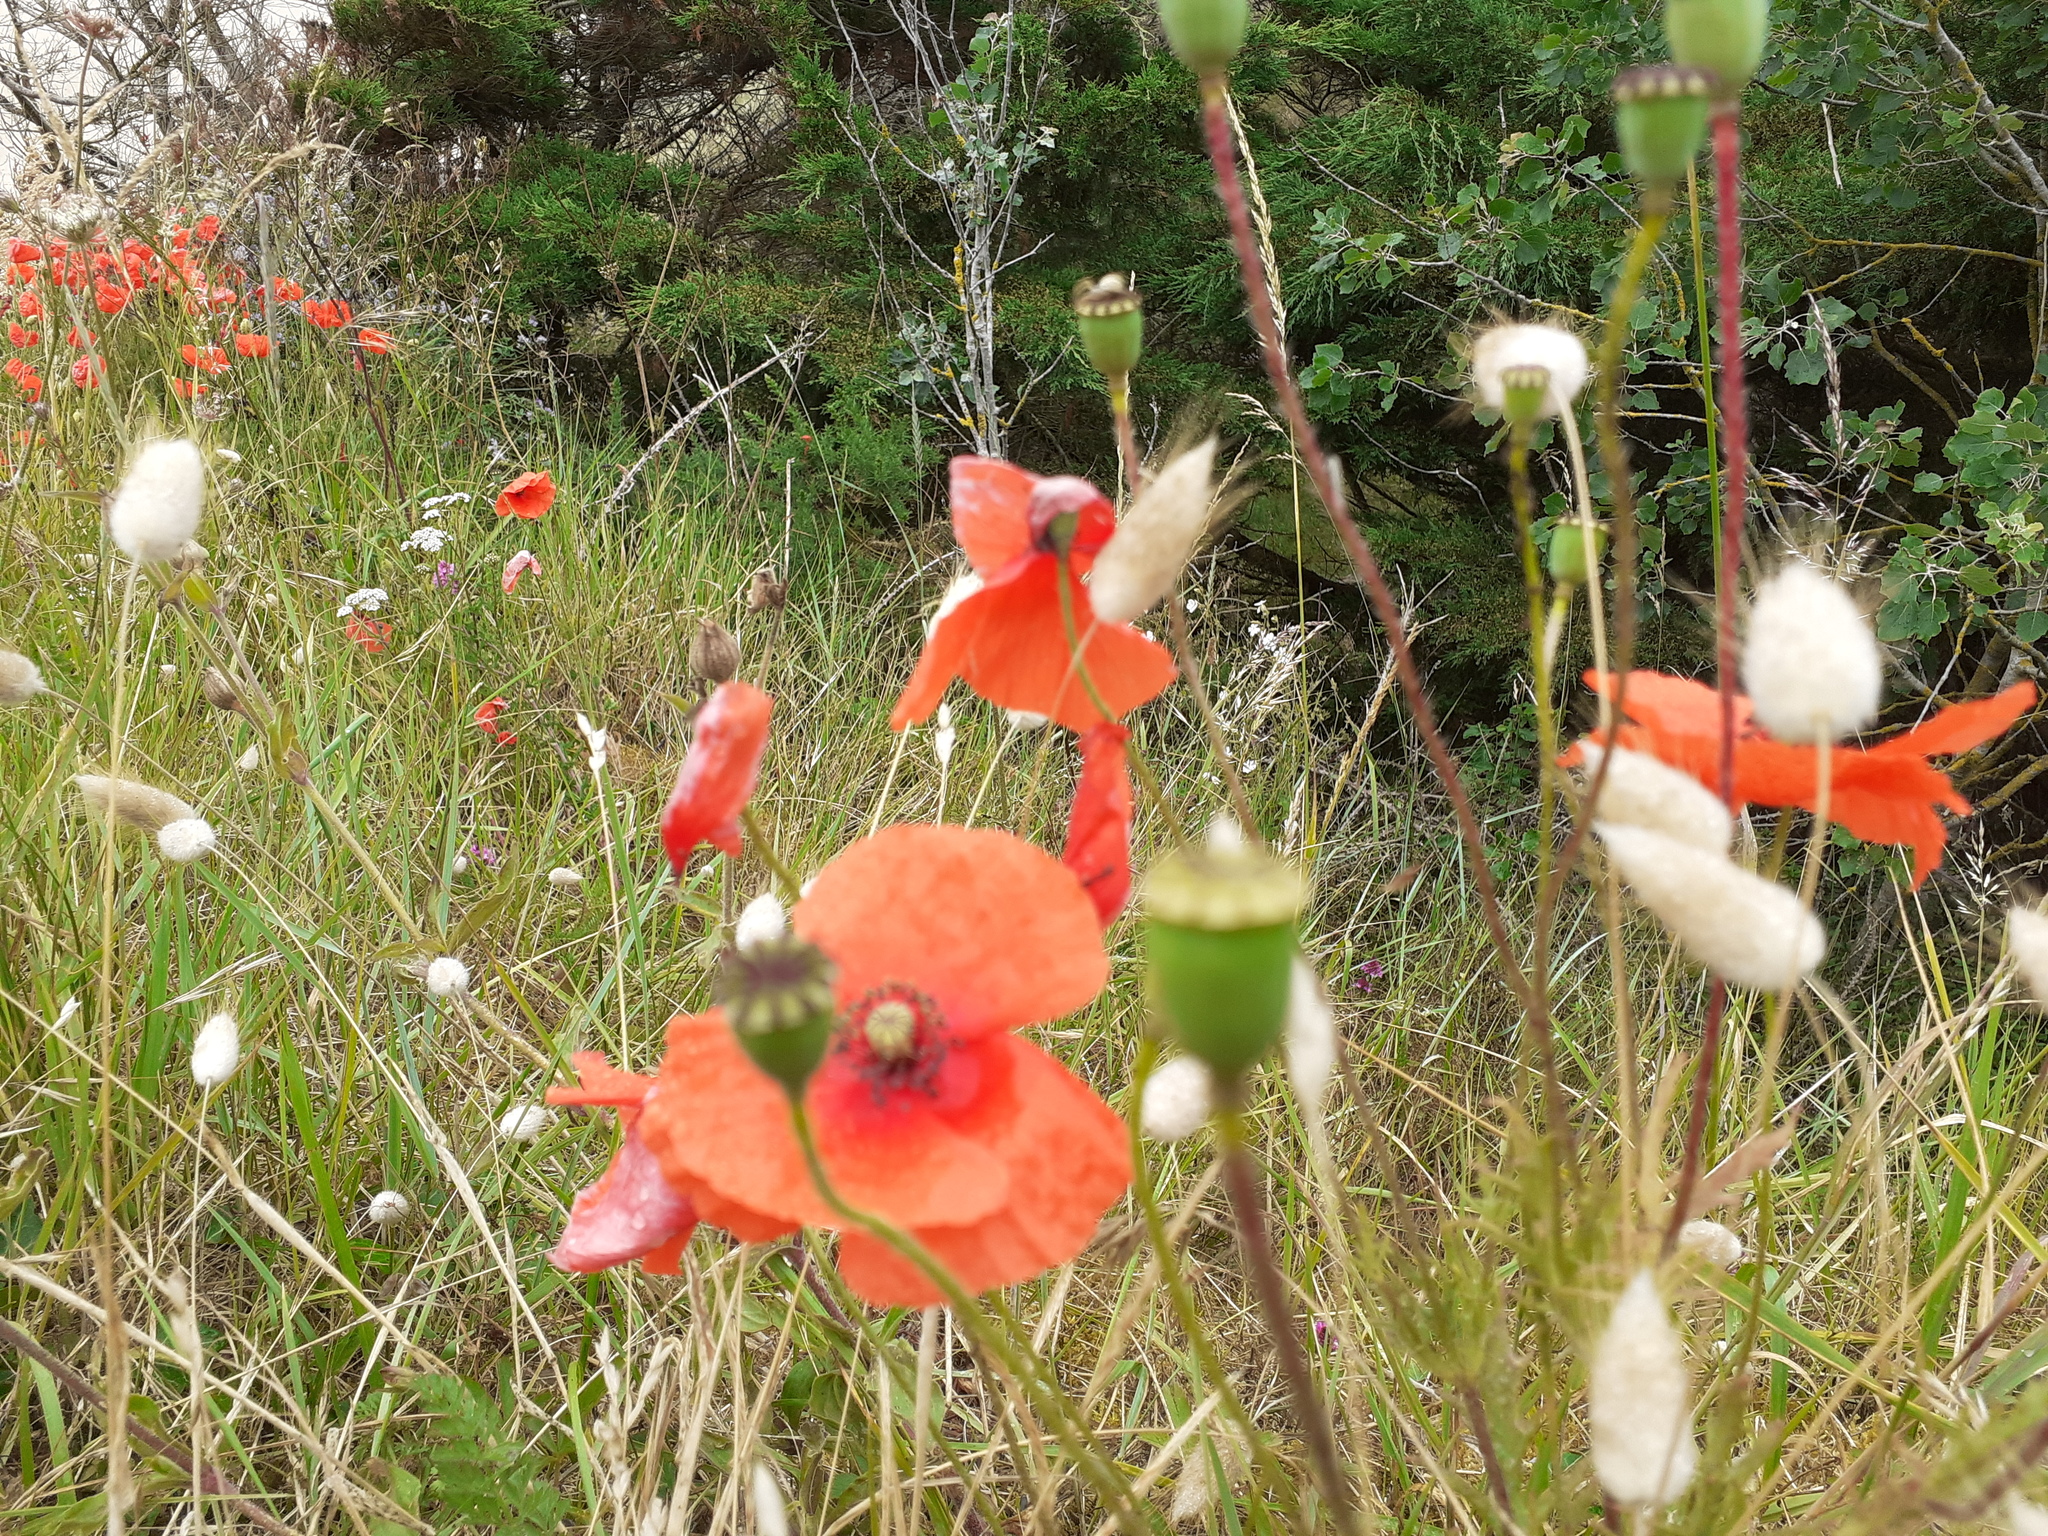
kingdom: Plantae
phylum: Tracheophyta
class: Magnoliopsida
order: Ranunculales
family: Papaveraceae
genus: Papaver
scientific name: Papaver rhoeas
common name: Corn poppy
